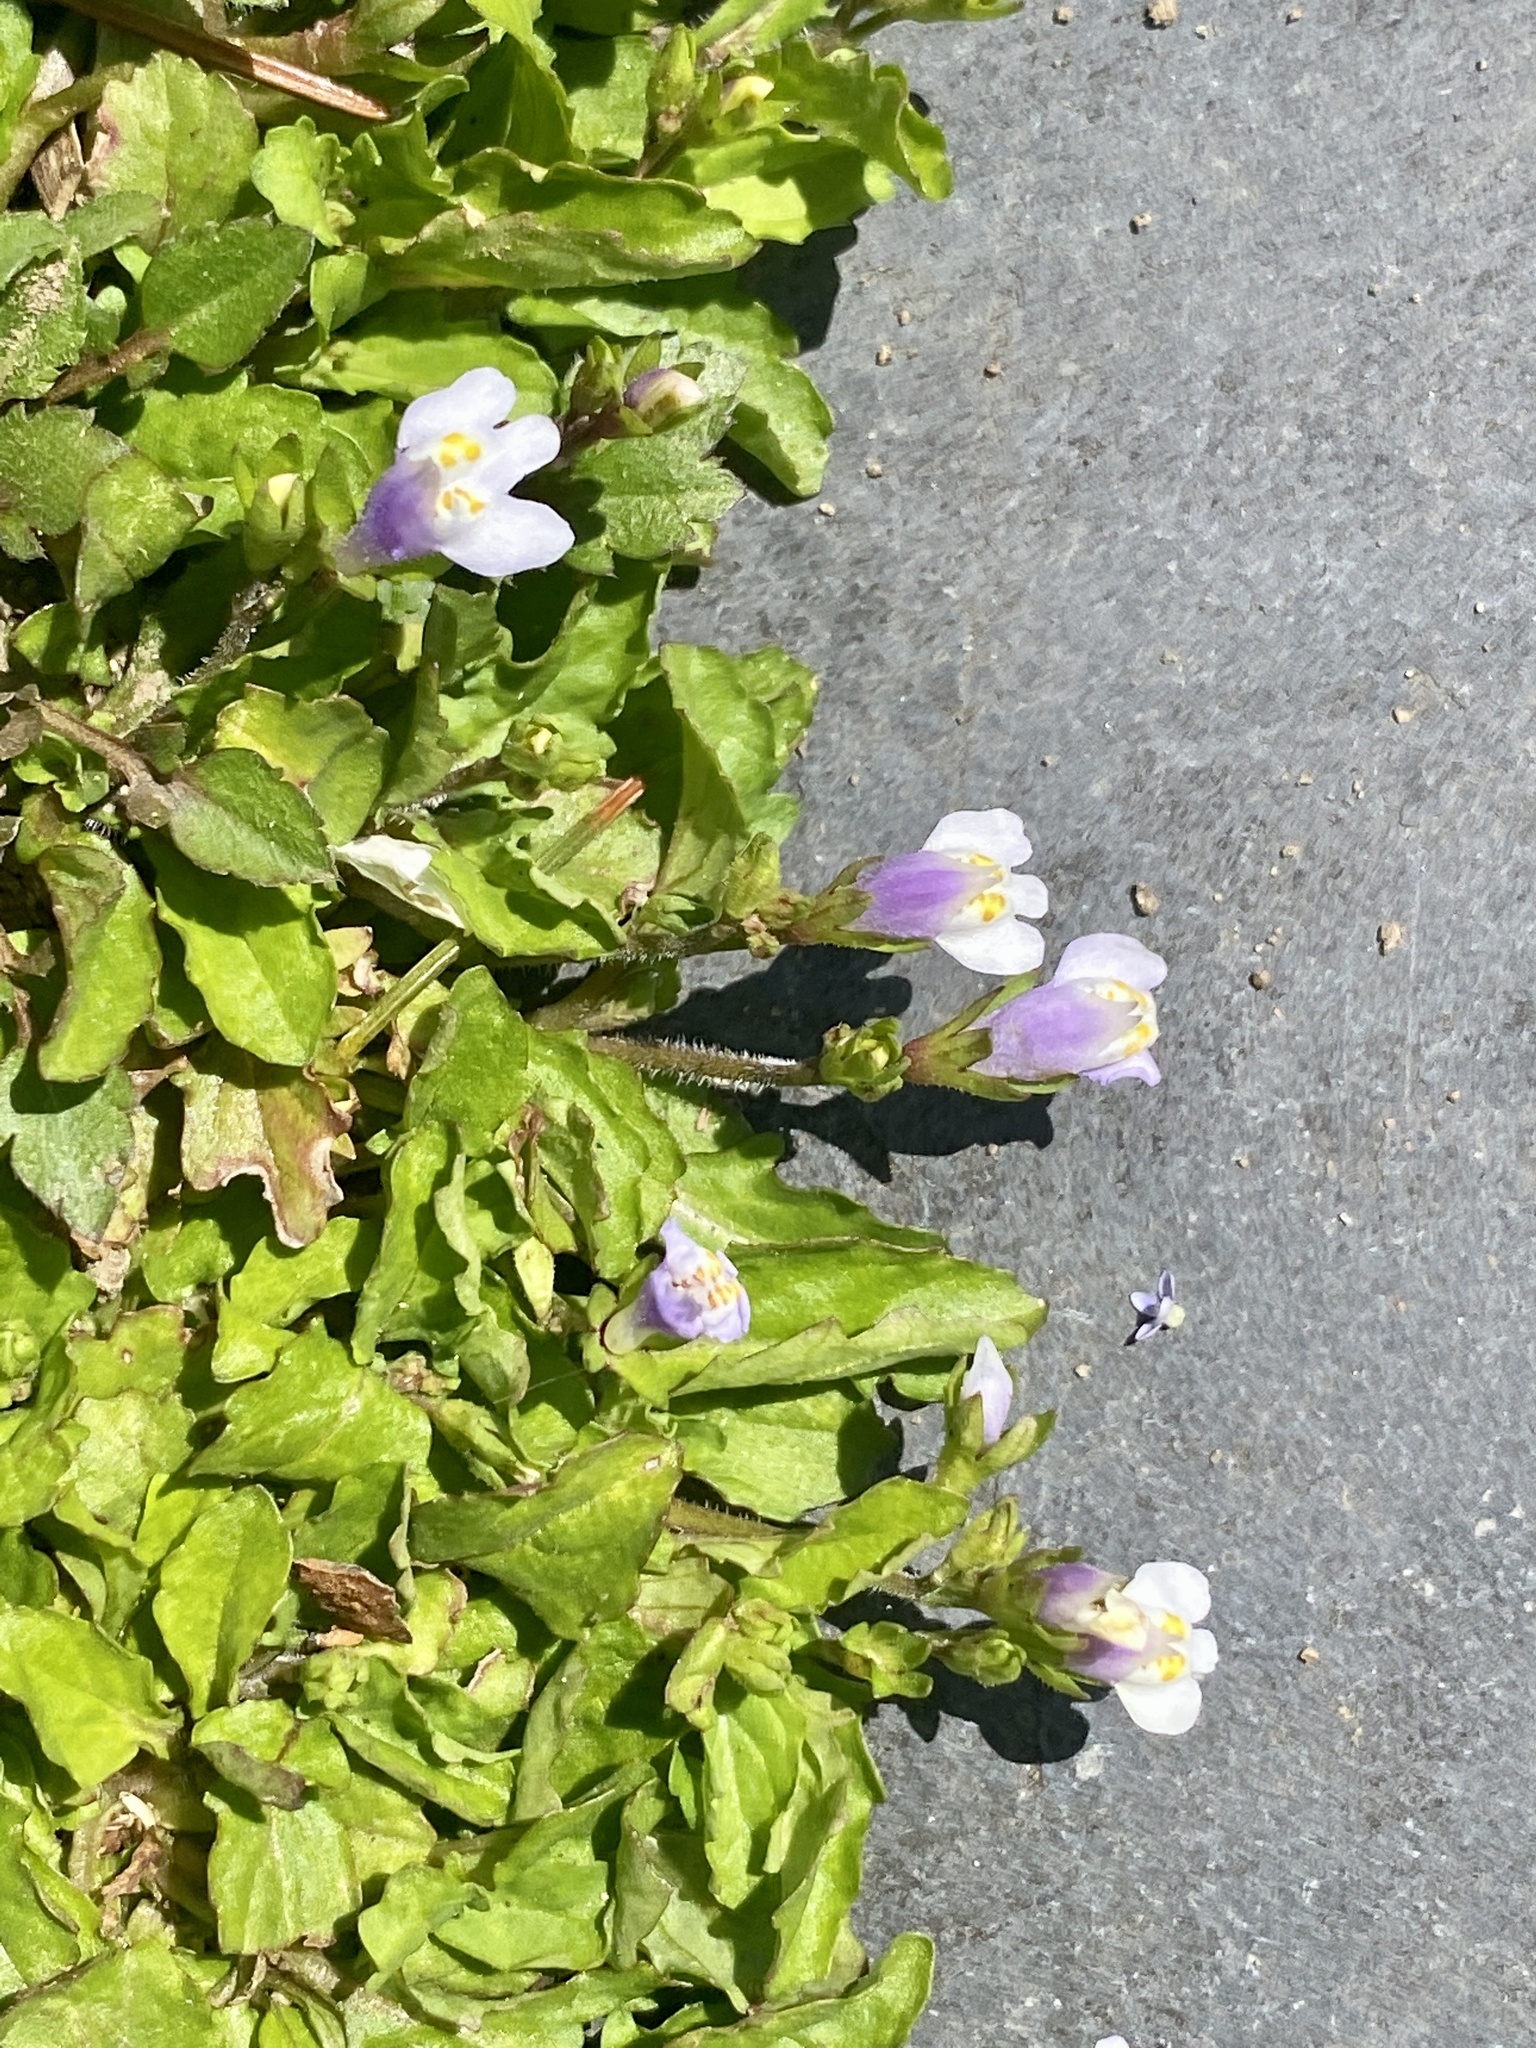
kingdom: Plantae
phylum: Tracheophyta
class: Magnoliopsida
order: Lamiales
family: Mazaceae
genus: Mazus
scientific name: Mazus pumilus
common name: Japanese mazus
